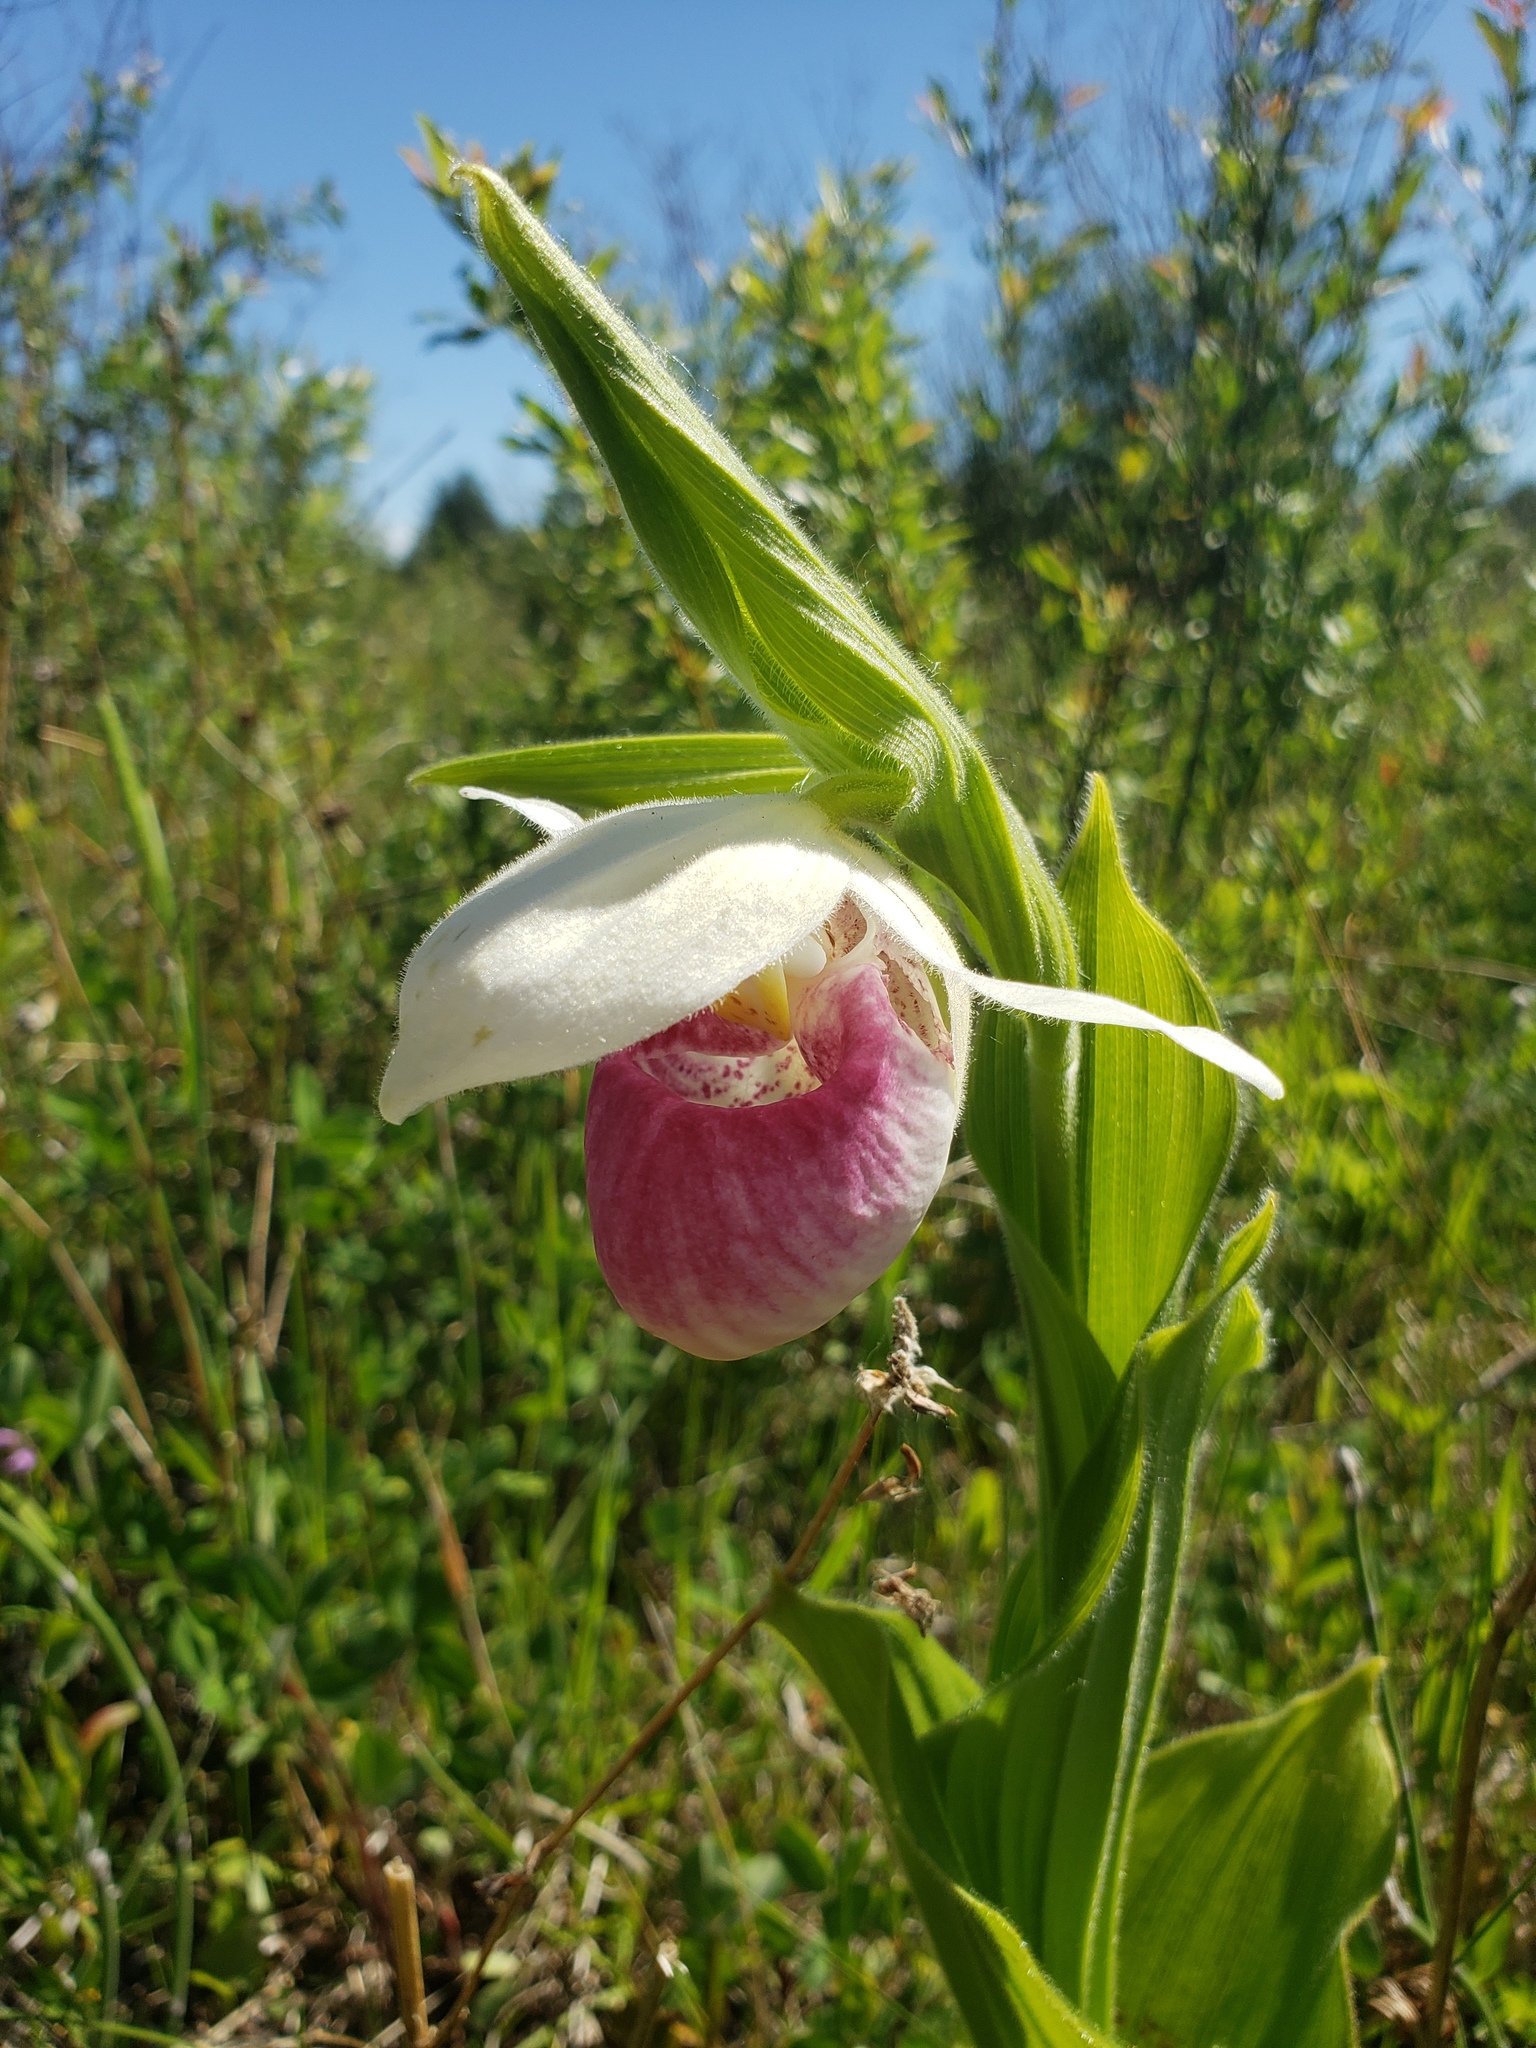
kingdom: Plantae
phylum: Tracheophyta
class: Liliopsida
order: Asparagales
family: Orchidaceae
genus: Cypripedium
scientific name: Cypripedium reginae
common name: Queen lady's-slipper
